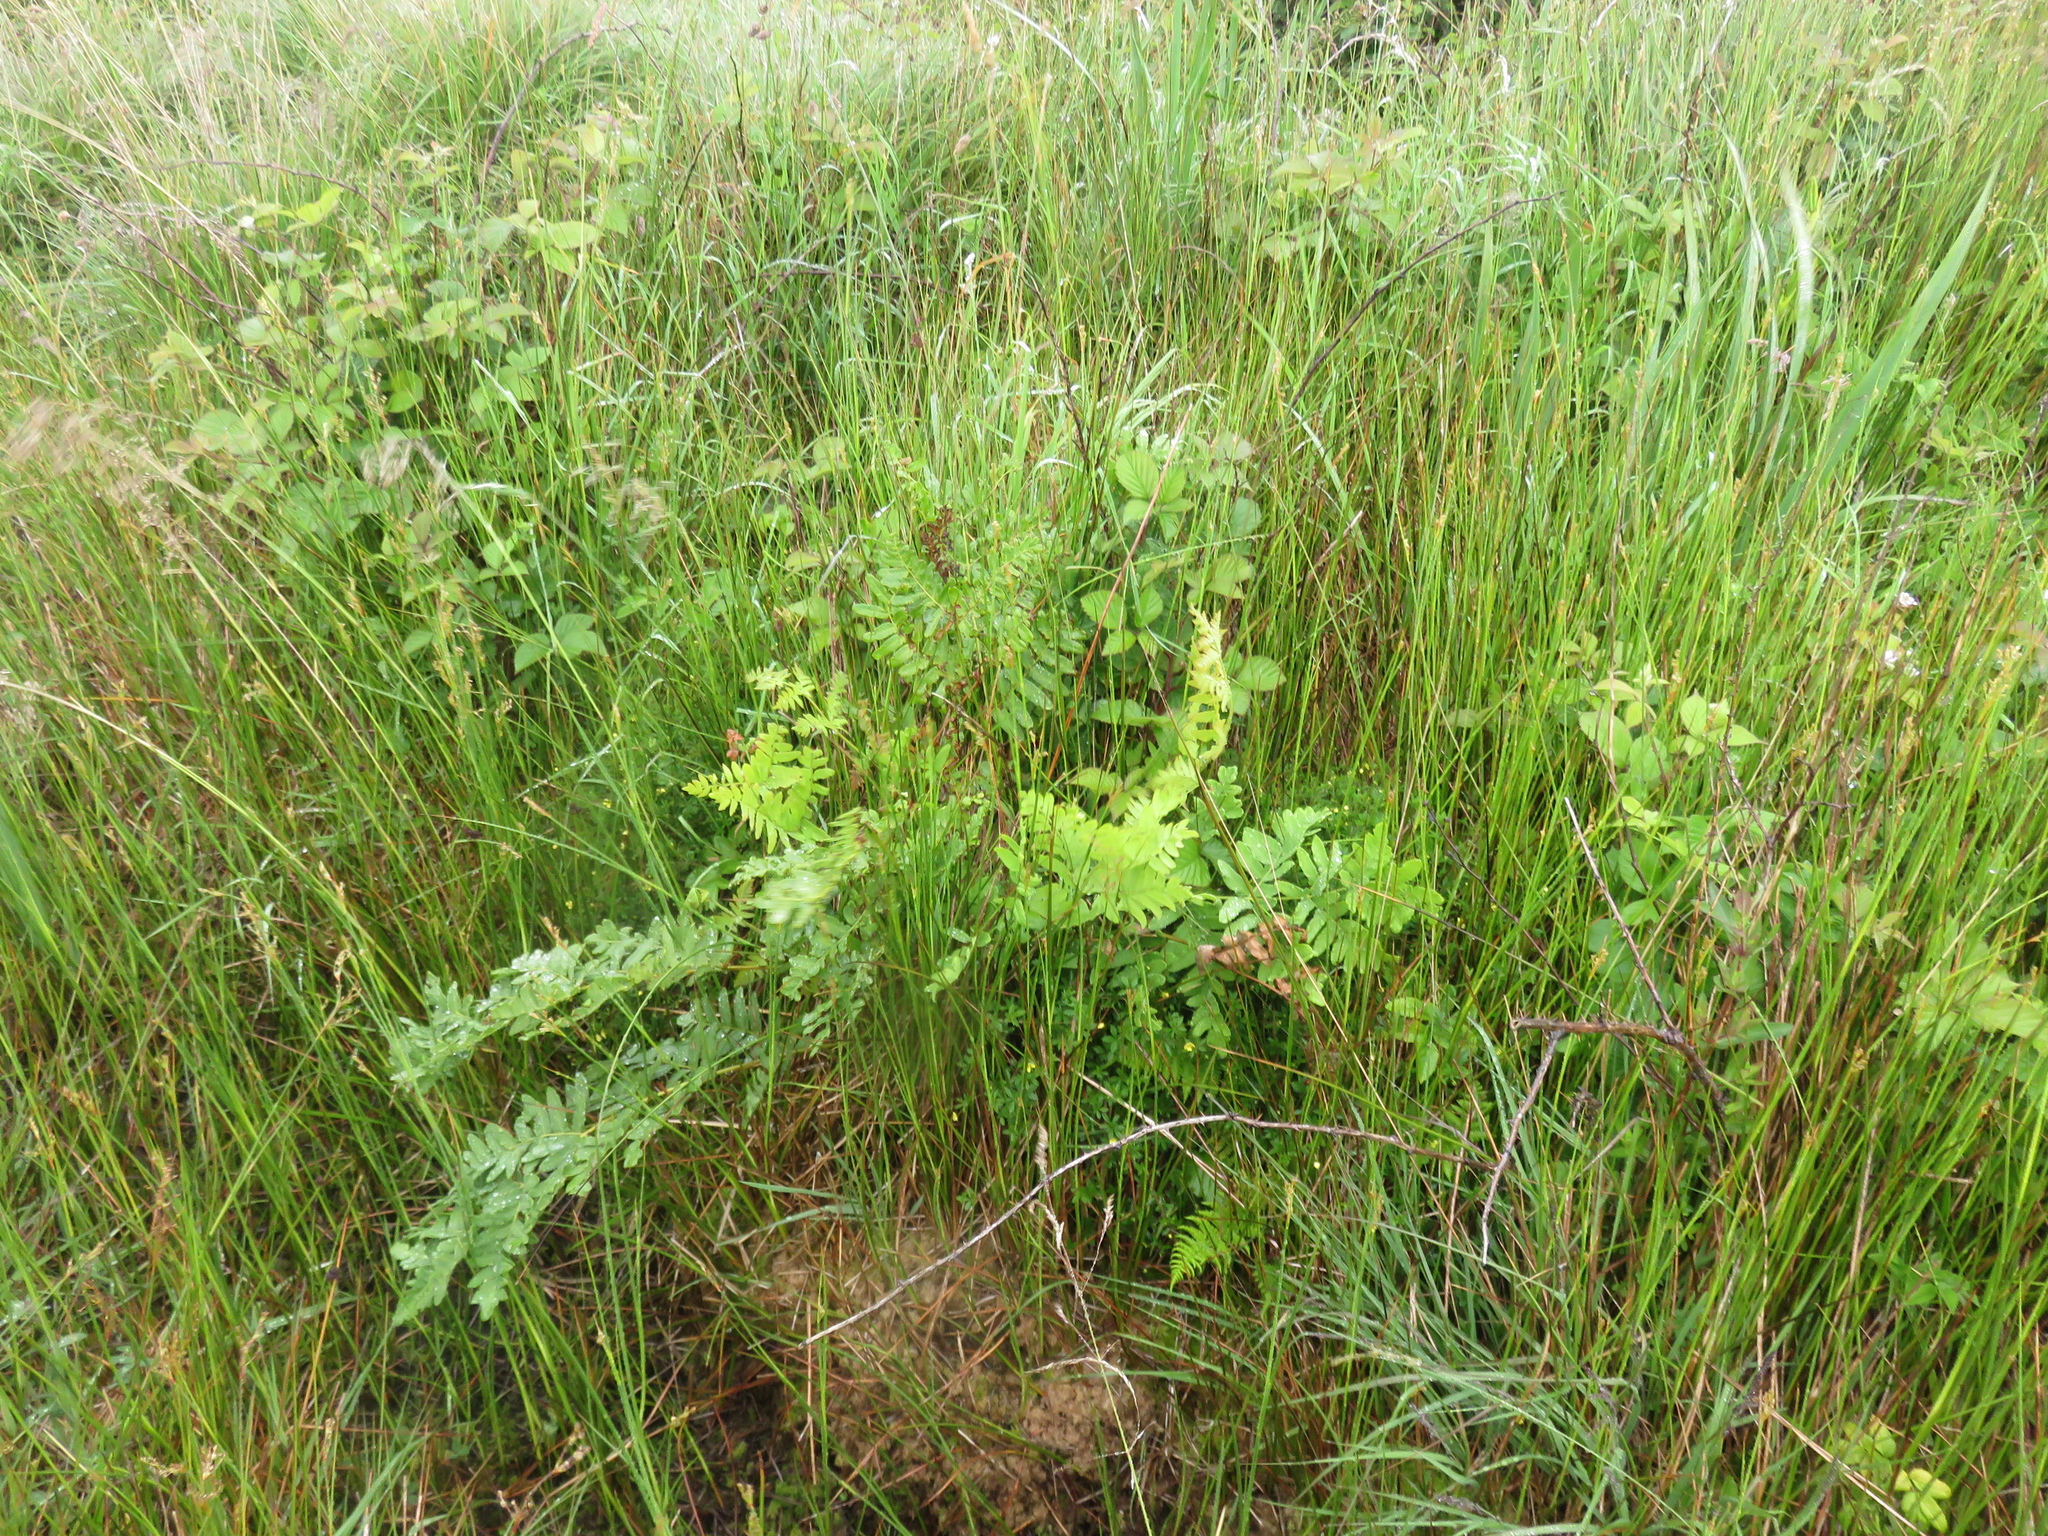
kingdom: Plantae
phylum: Tracheophyta
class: Polypodiopsida
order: Osmundales
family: Osmundaceae
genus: Osmunda
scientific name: Osmunda regalis
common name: Royal fern
